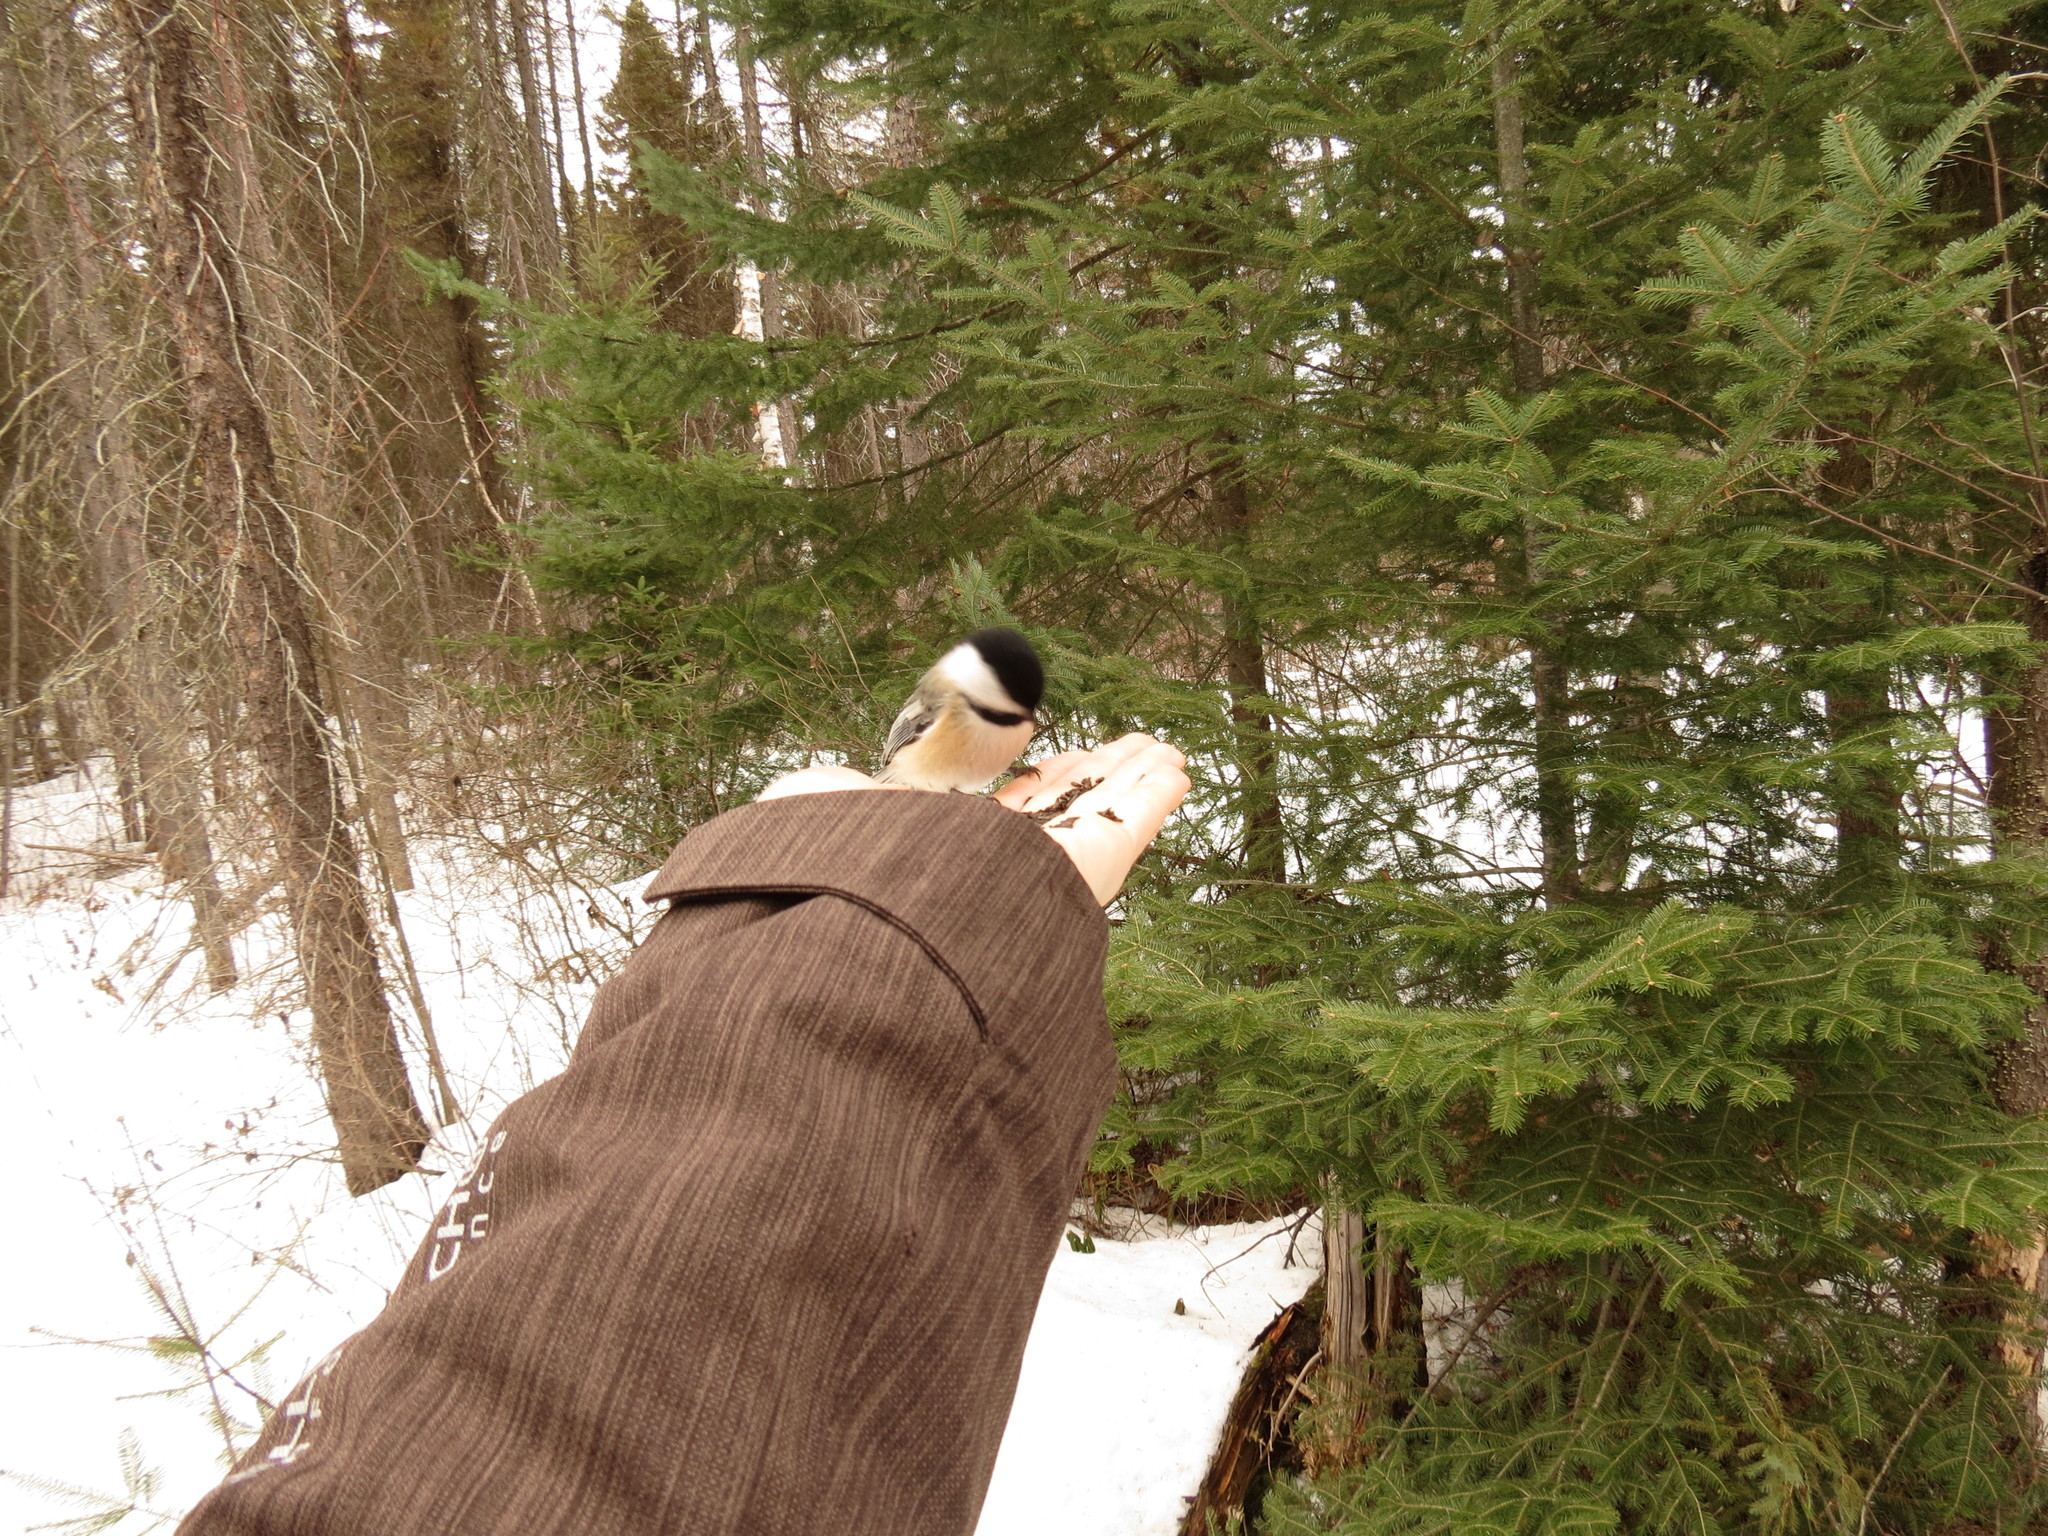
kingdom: Animalia
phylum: Chordata
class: Aves
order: Passeriformes
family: Paridae
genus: Poecile
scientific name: Poecile atricapillus
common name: Black-capped chickadee
